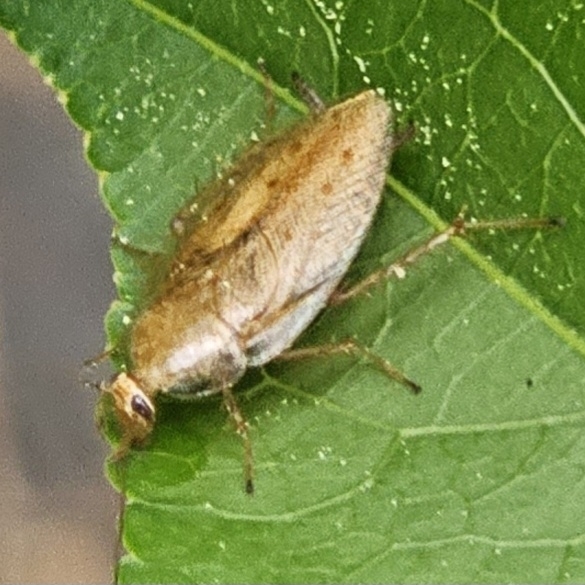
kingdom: Animalia
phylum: Arthropoda
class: Insecta
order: Blattodea
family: Ectobiidae
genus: Ectobius
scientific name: Ectobius pallidus
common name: Tawny cockroach
